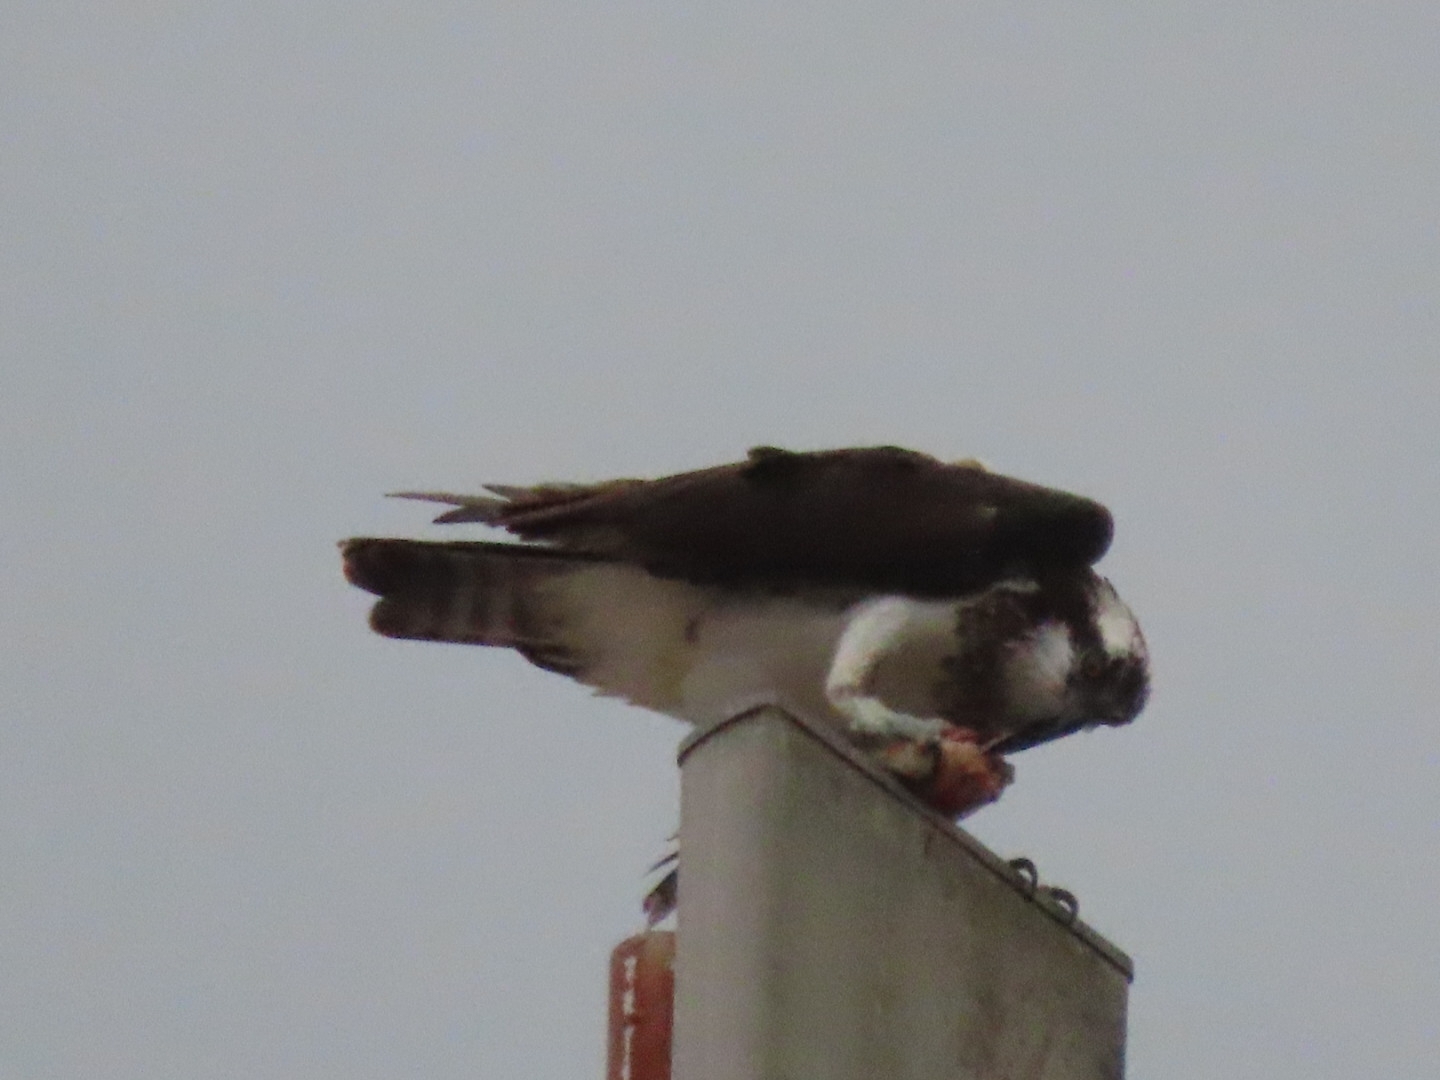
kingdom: Animalia
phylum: Chordata
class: Aves
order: Accipitriformes
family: Pandionidae
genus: Pandion
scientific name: Pandion haliaetus
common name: Osprey
